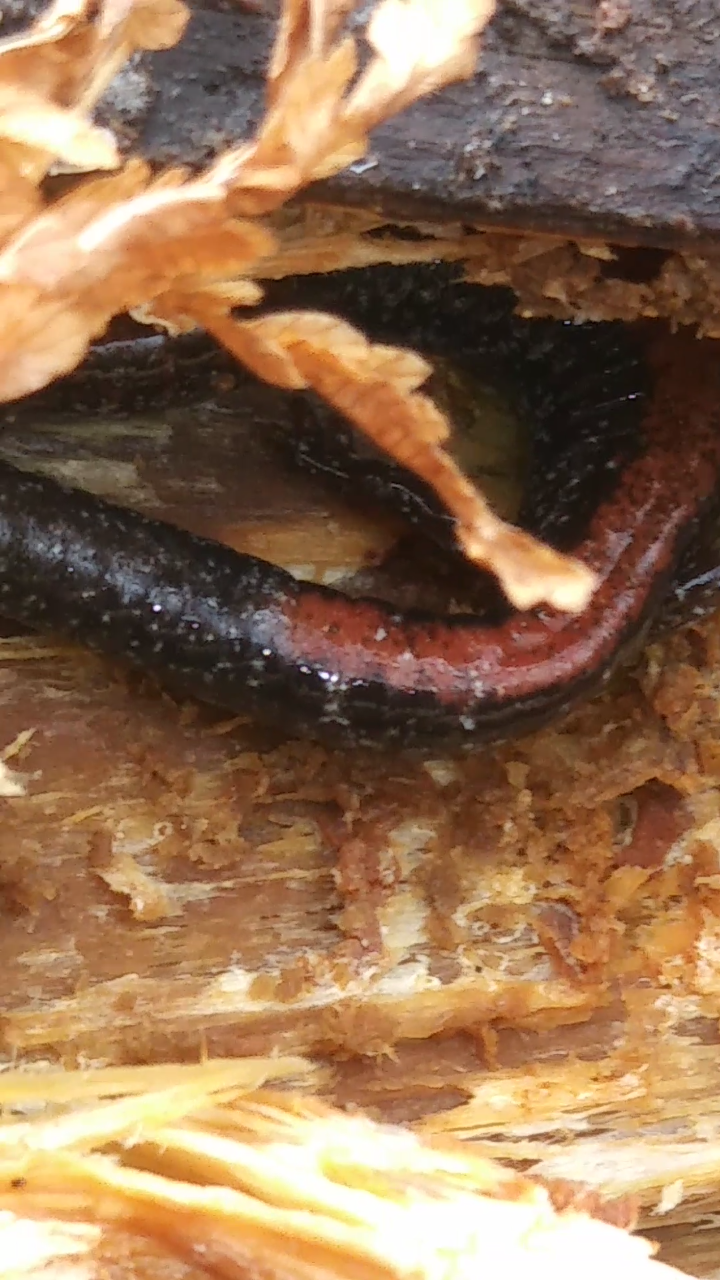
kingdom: Animalia
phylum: Chordata
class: Amphibia
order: Caudata
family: Plethodontidae
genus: Plethodon
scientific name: Plethodon cinereus
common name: Redback salamander
